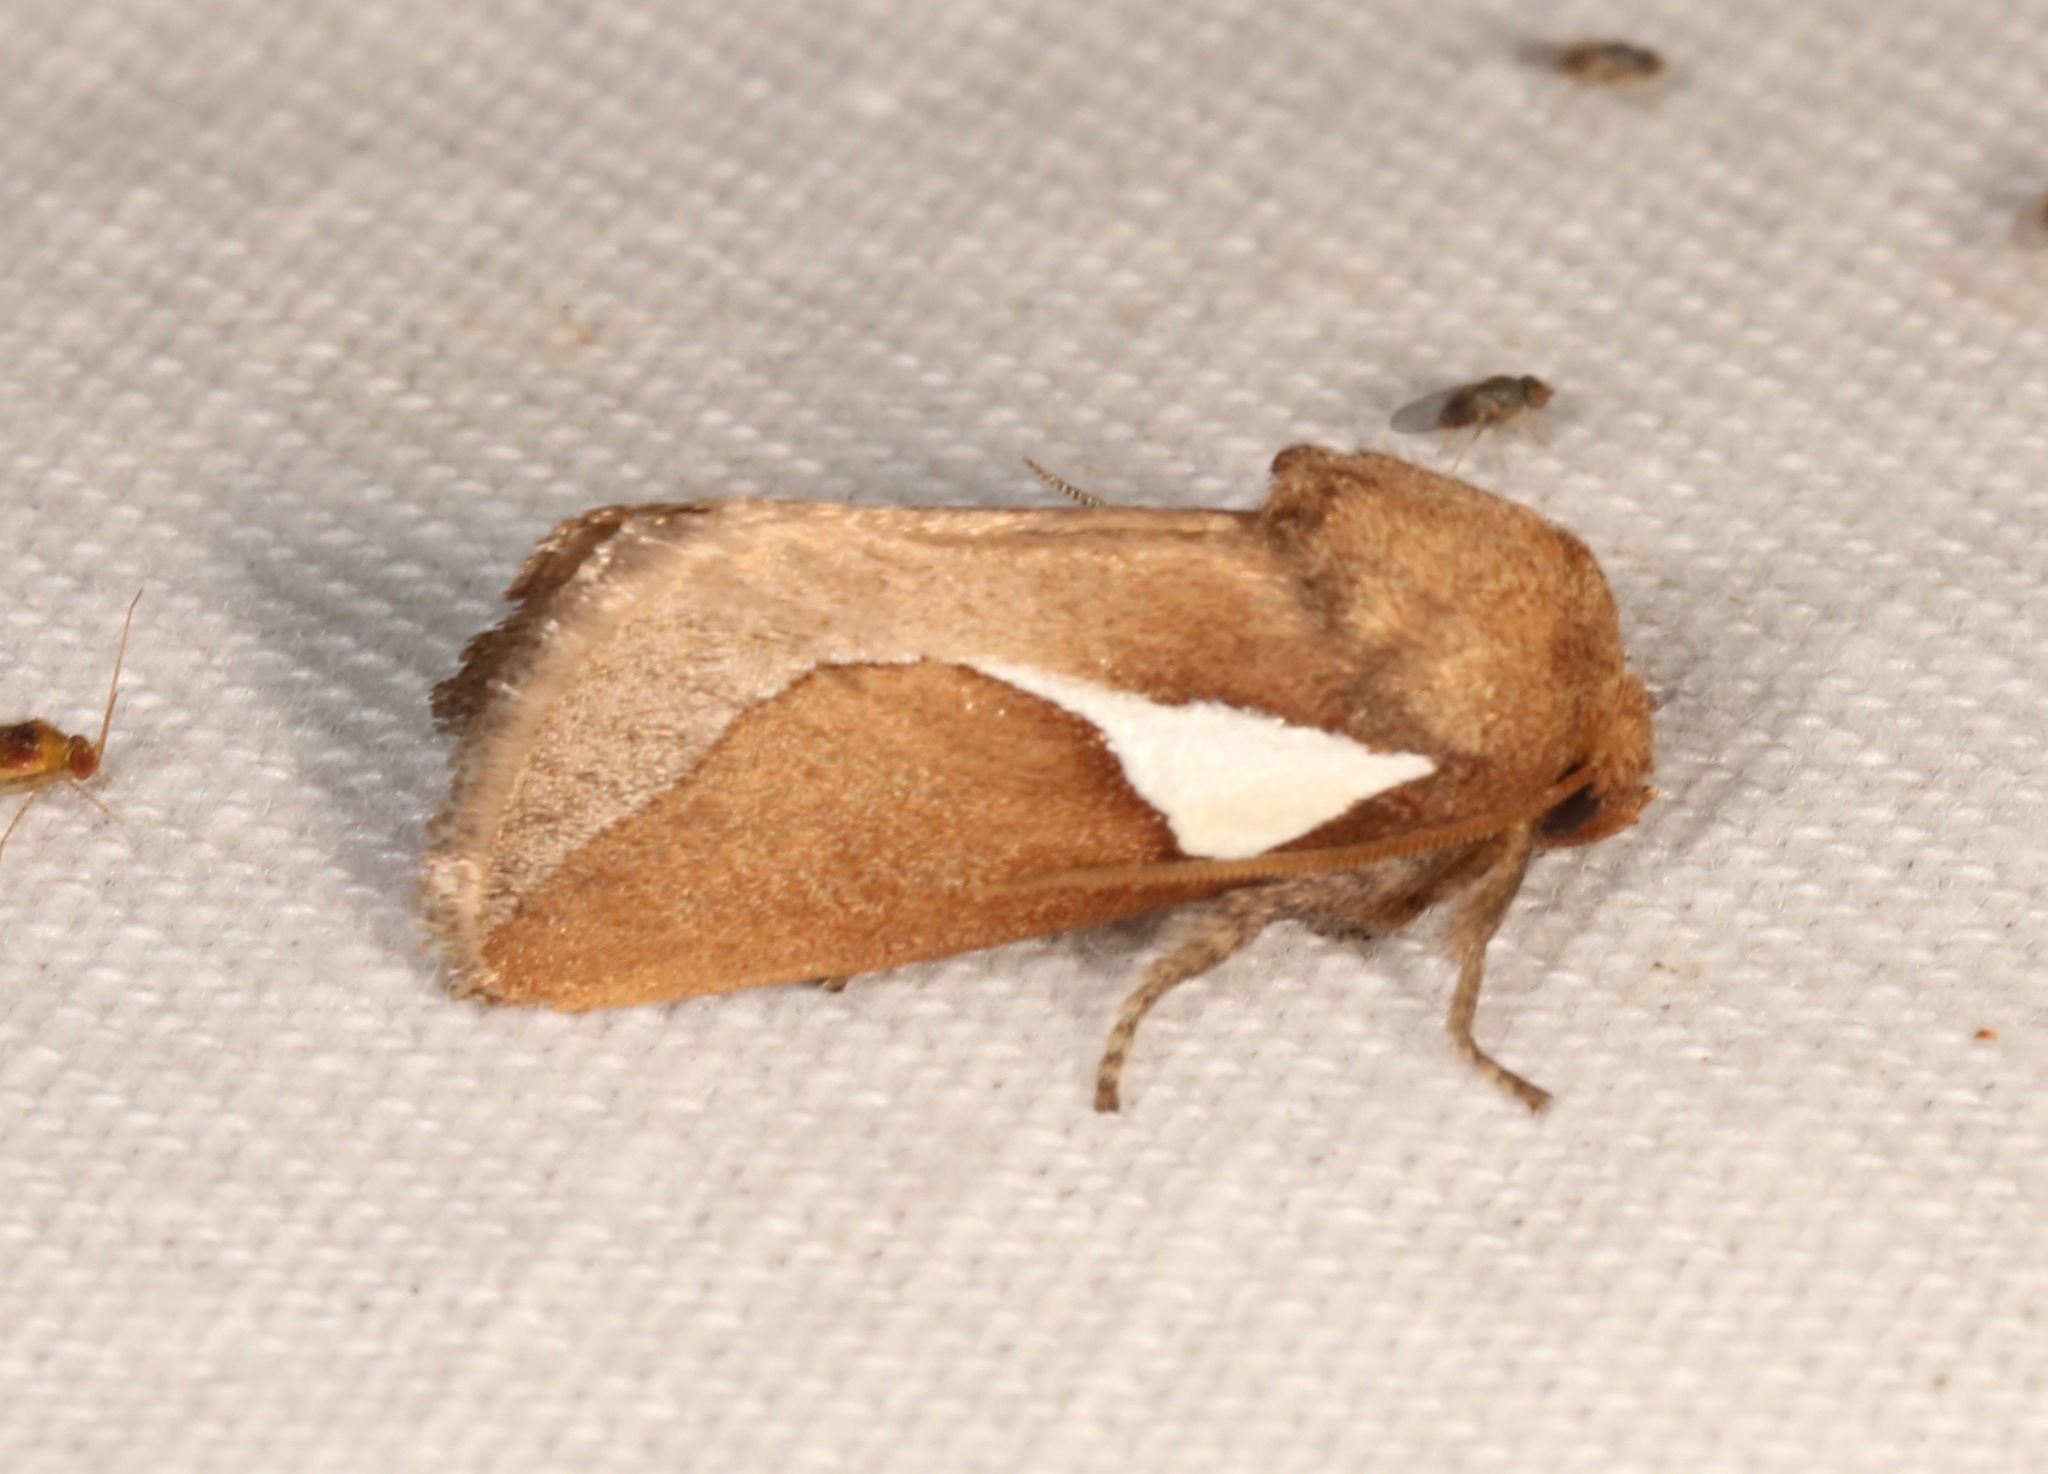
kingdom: Animalia
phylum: Arthropoda
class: Insecta
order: Lepidoptera
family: Limacodidae
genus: Prolimacodes
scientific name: Prolimacodes trigona
